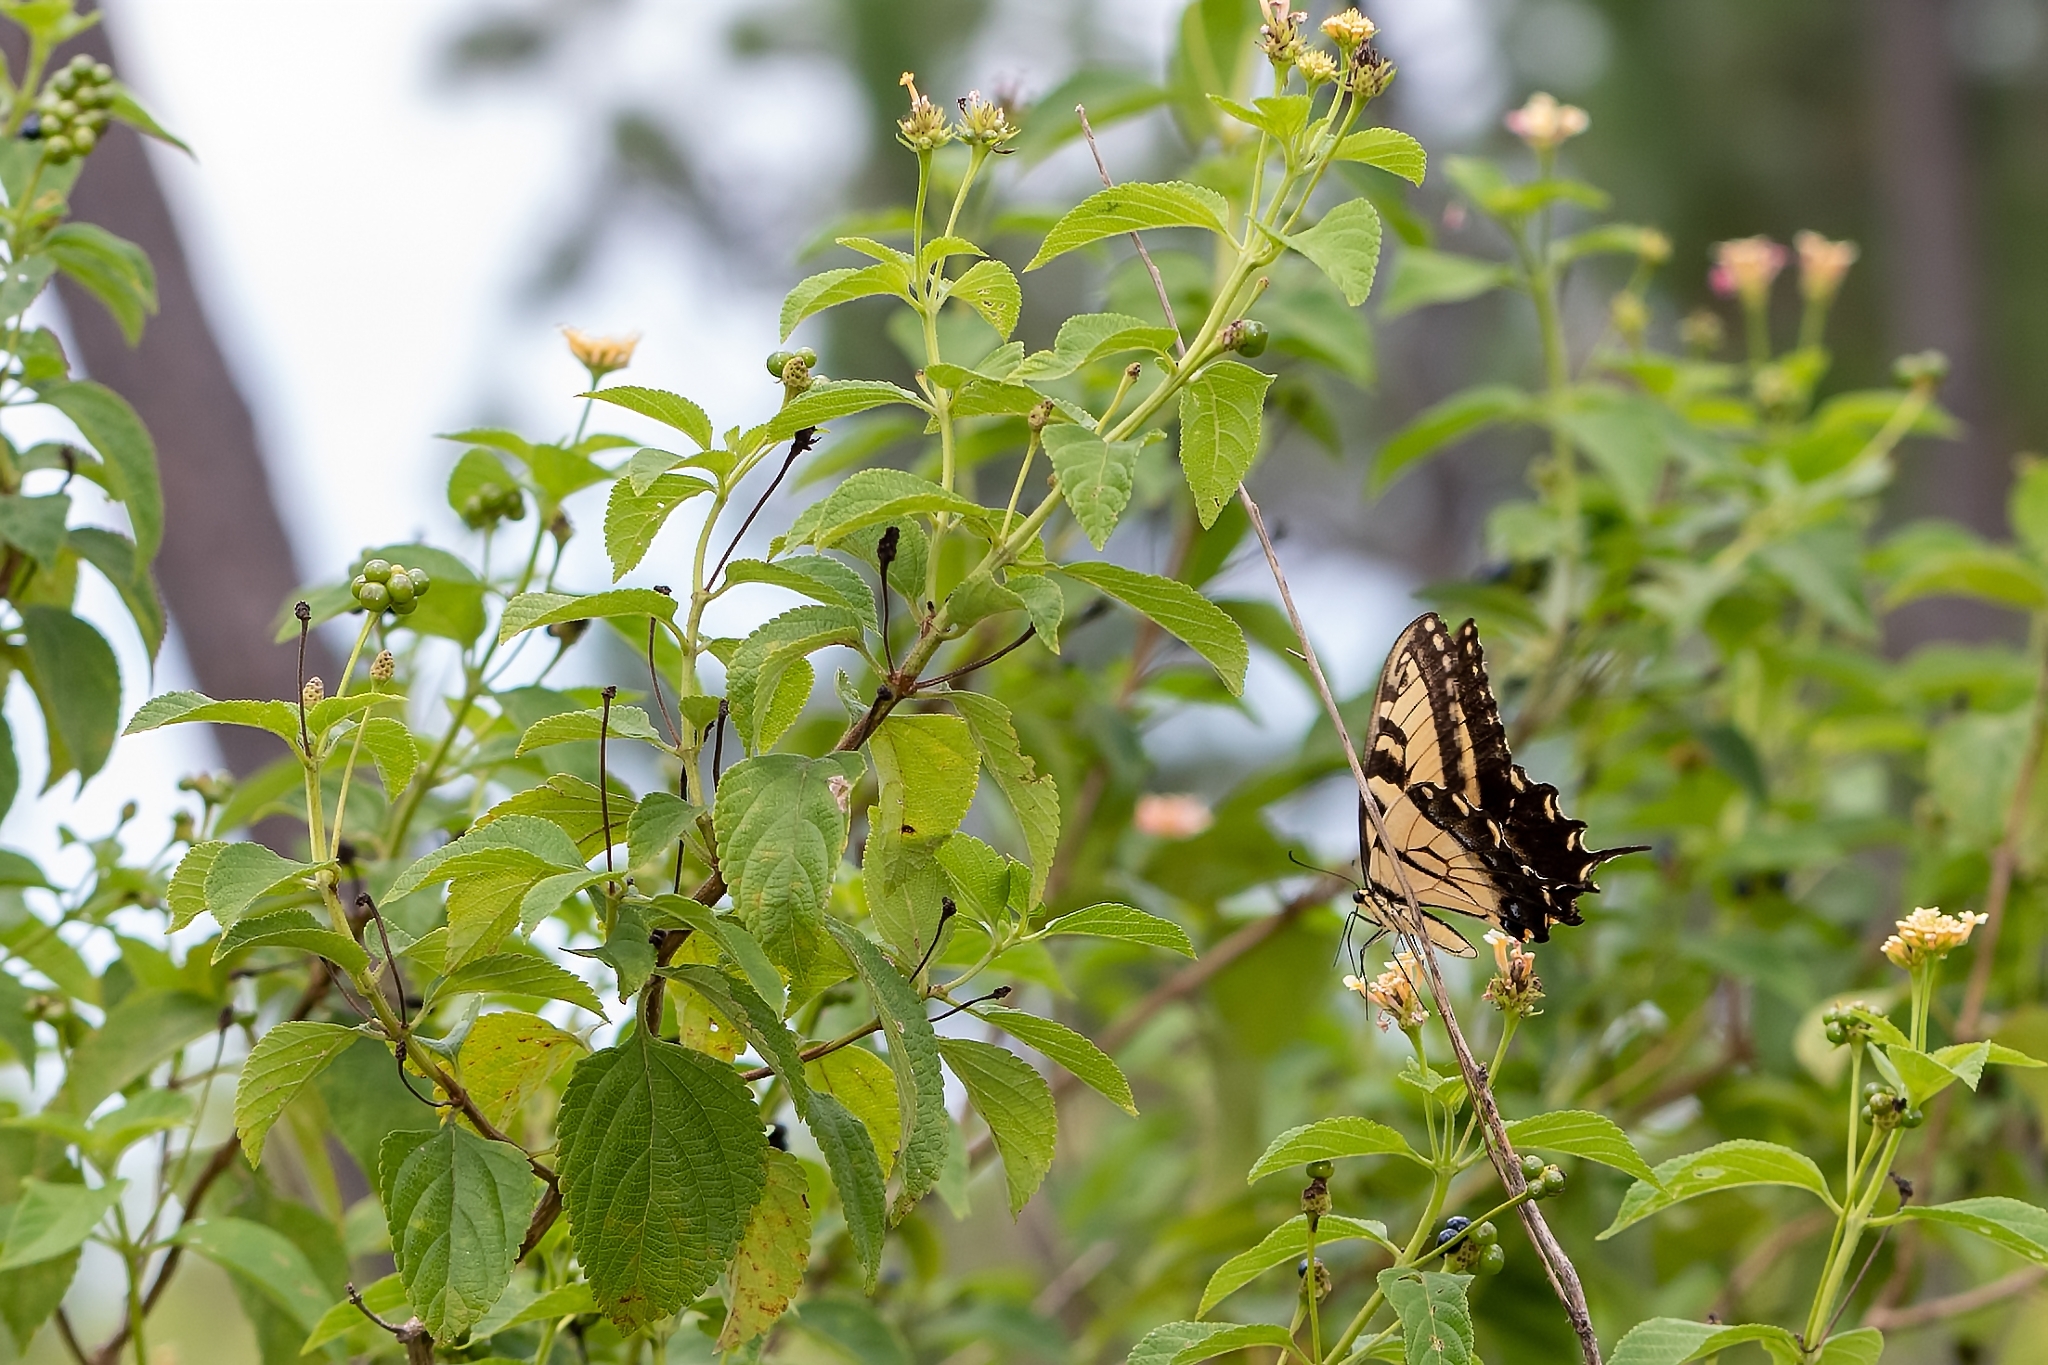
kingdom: Animalia
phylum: Arthropoda
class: Insecta
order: Lepidoptera
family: Papilionidae
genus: Papilio
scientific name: Papilio glaucus
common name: Tiger swallowtail
